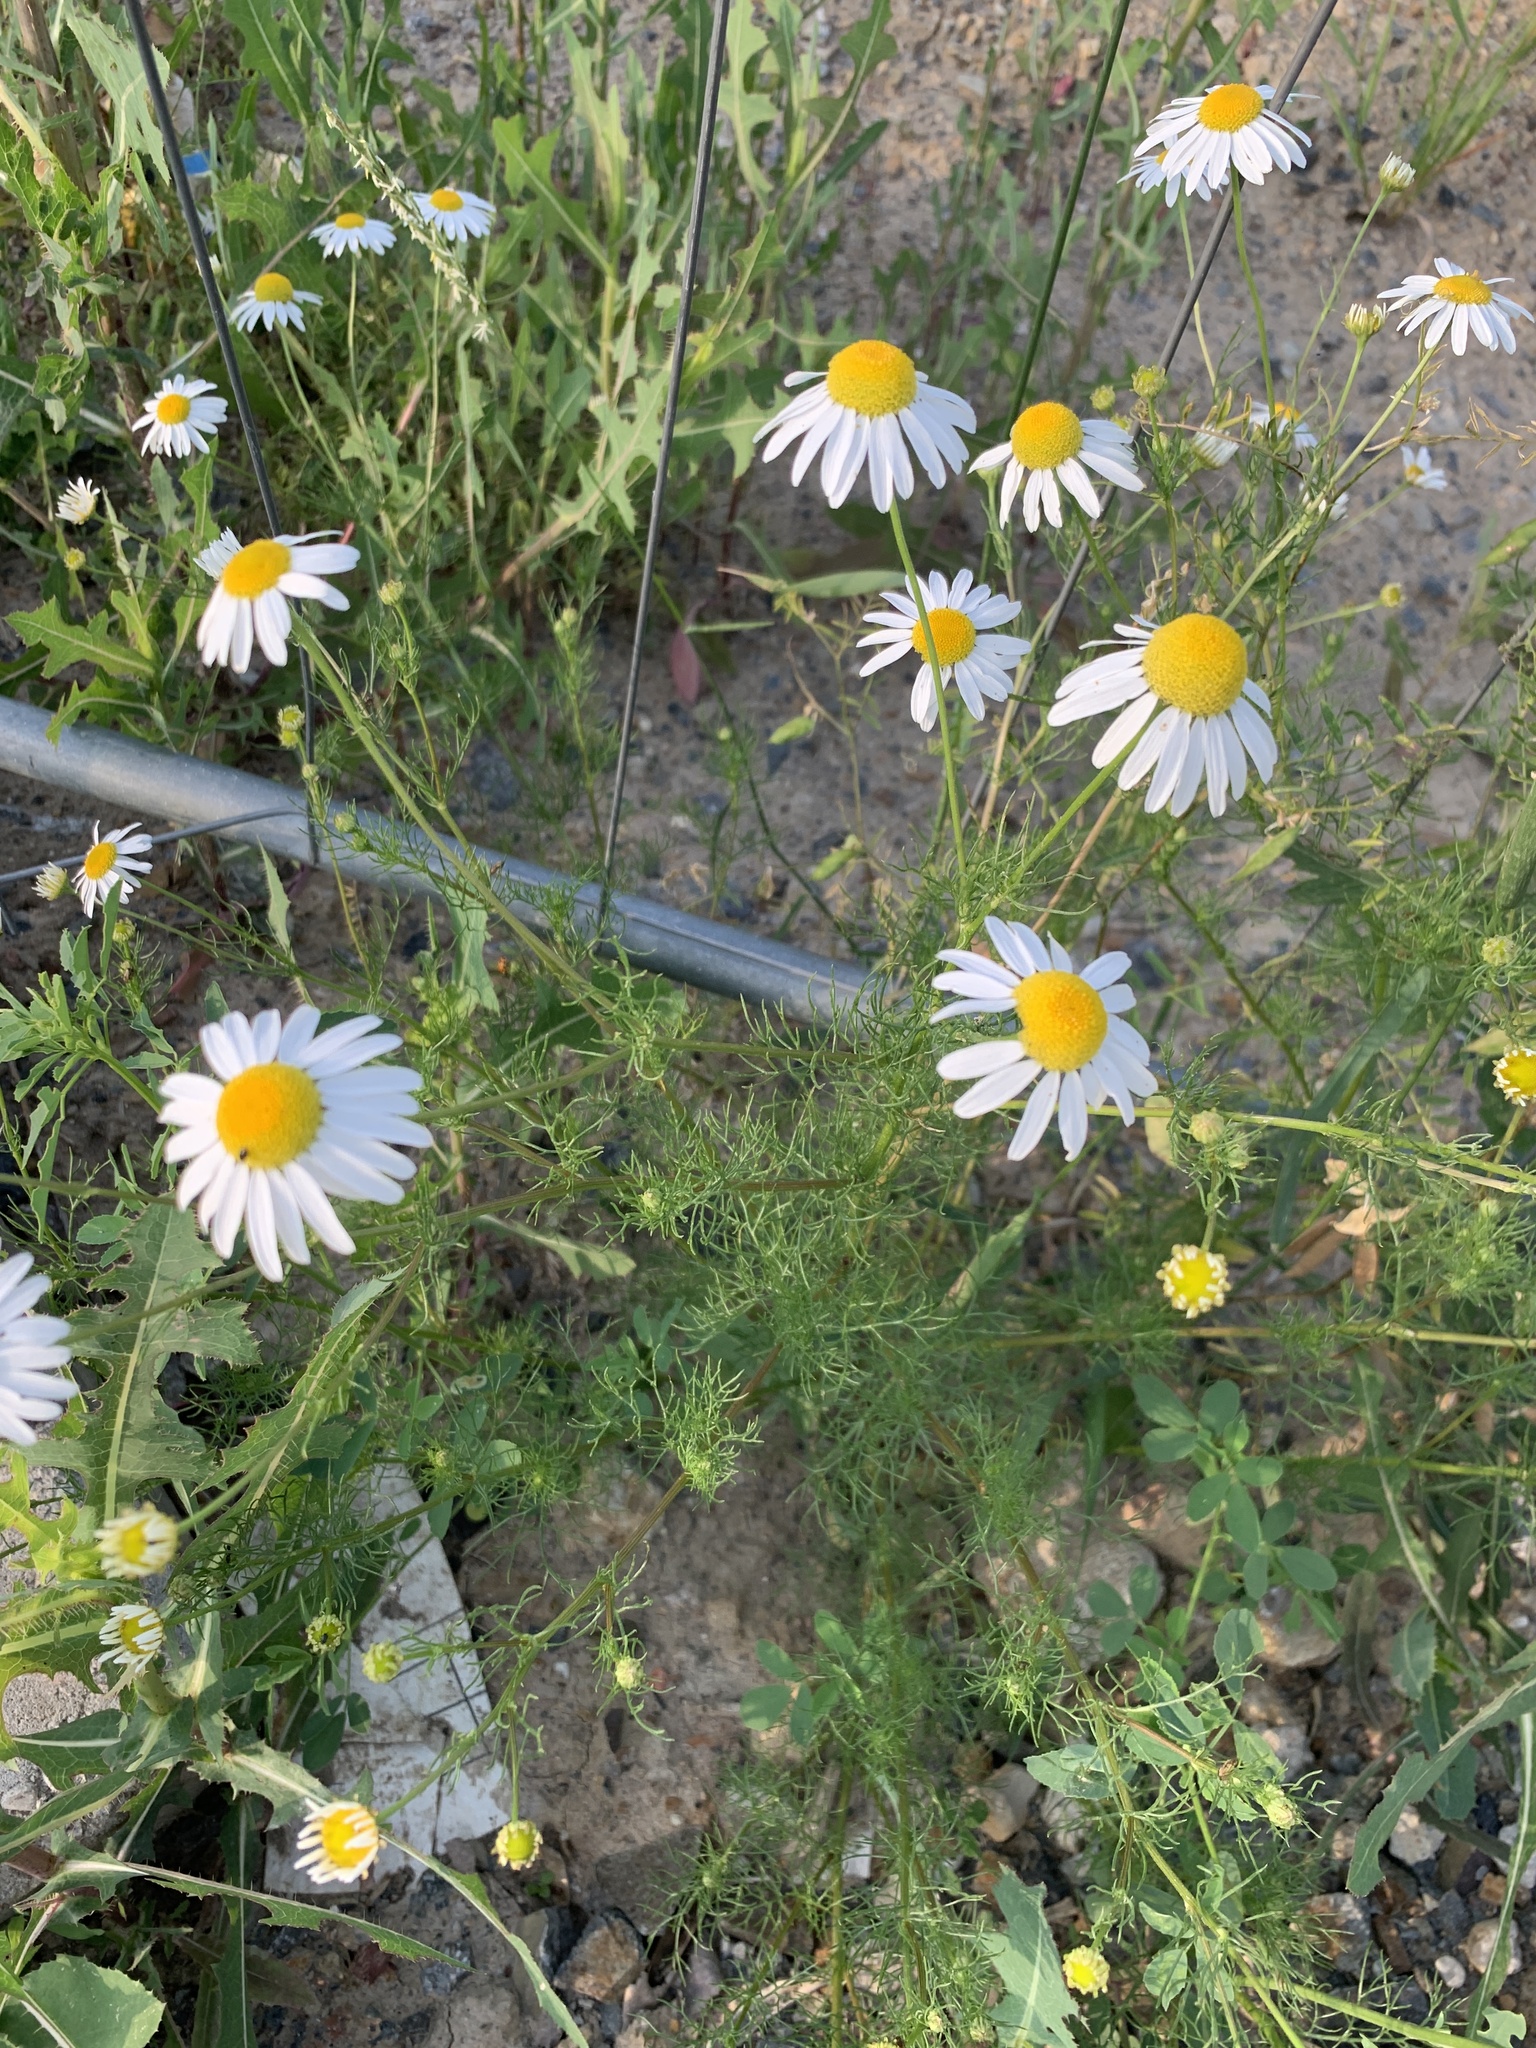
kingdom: Plantae
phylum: Tracheophyta
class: Magnoliopsida
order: Asterales
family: Asteraceae
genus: Tripleurospermum
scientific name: Tripleurospermum inodorum
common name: Scentless mayweed
